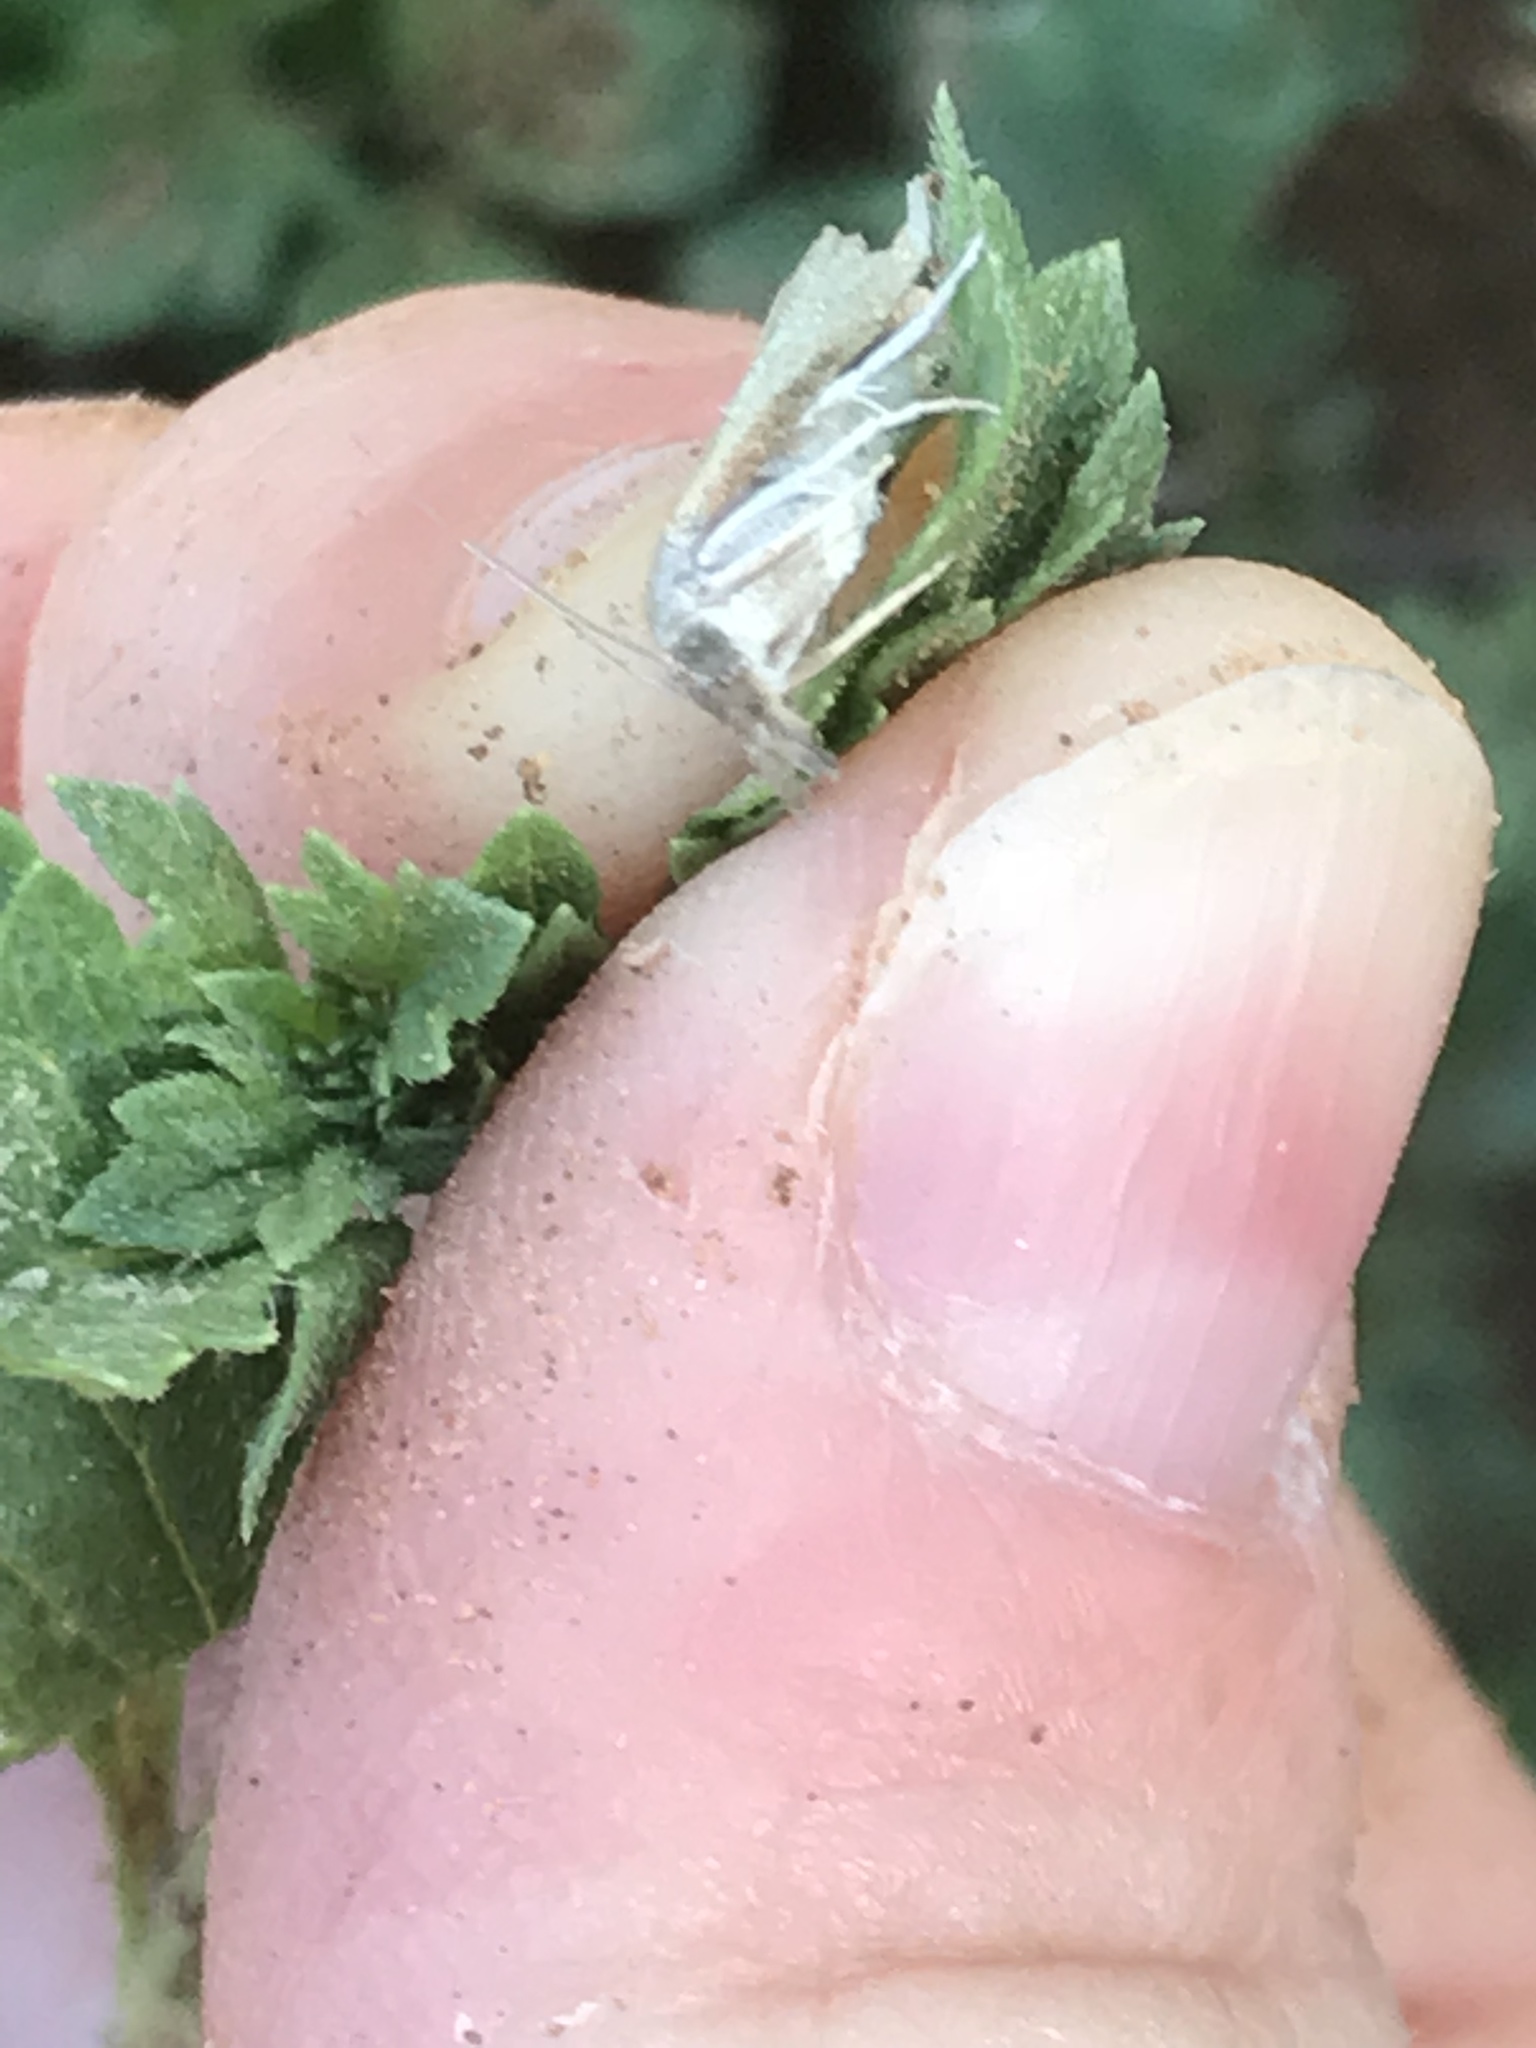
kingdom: Animalia
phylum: Arthropoda
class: Insecta
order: Lepidoptera
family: Crambidae
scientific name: Crambidae
